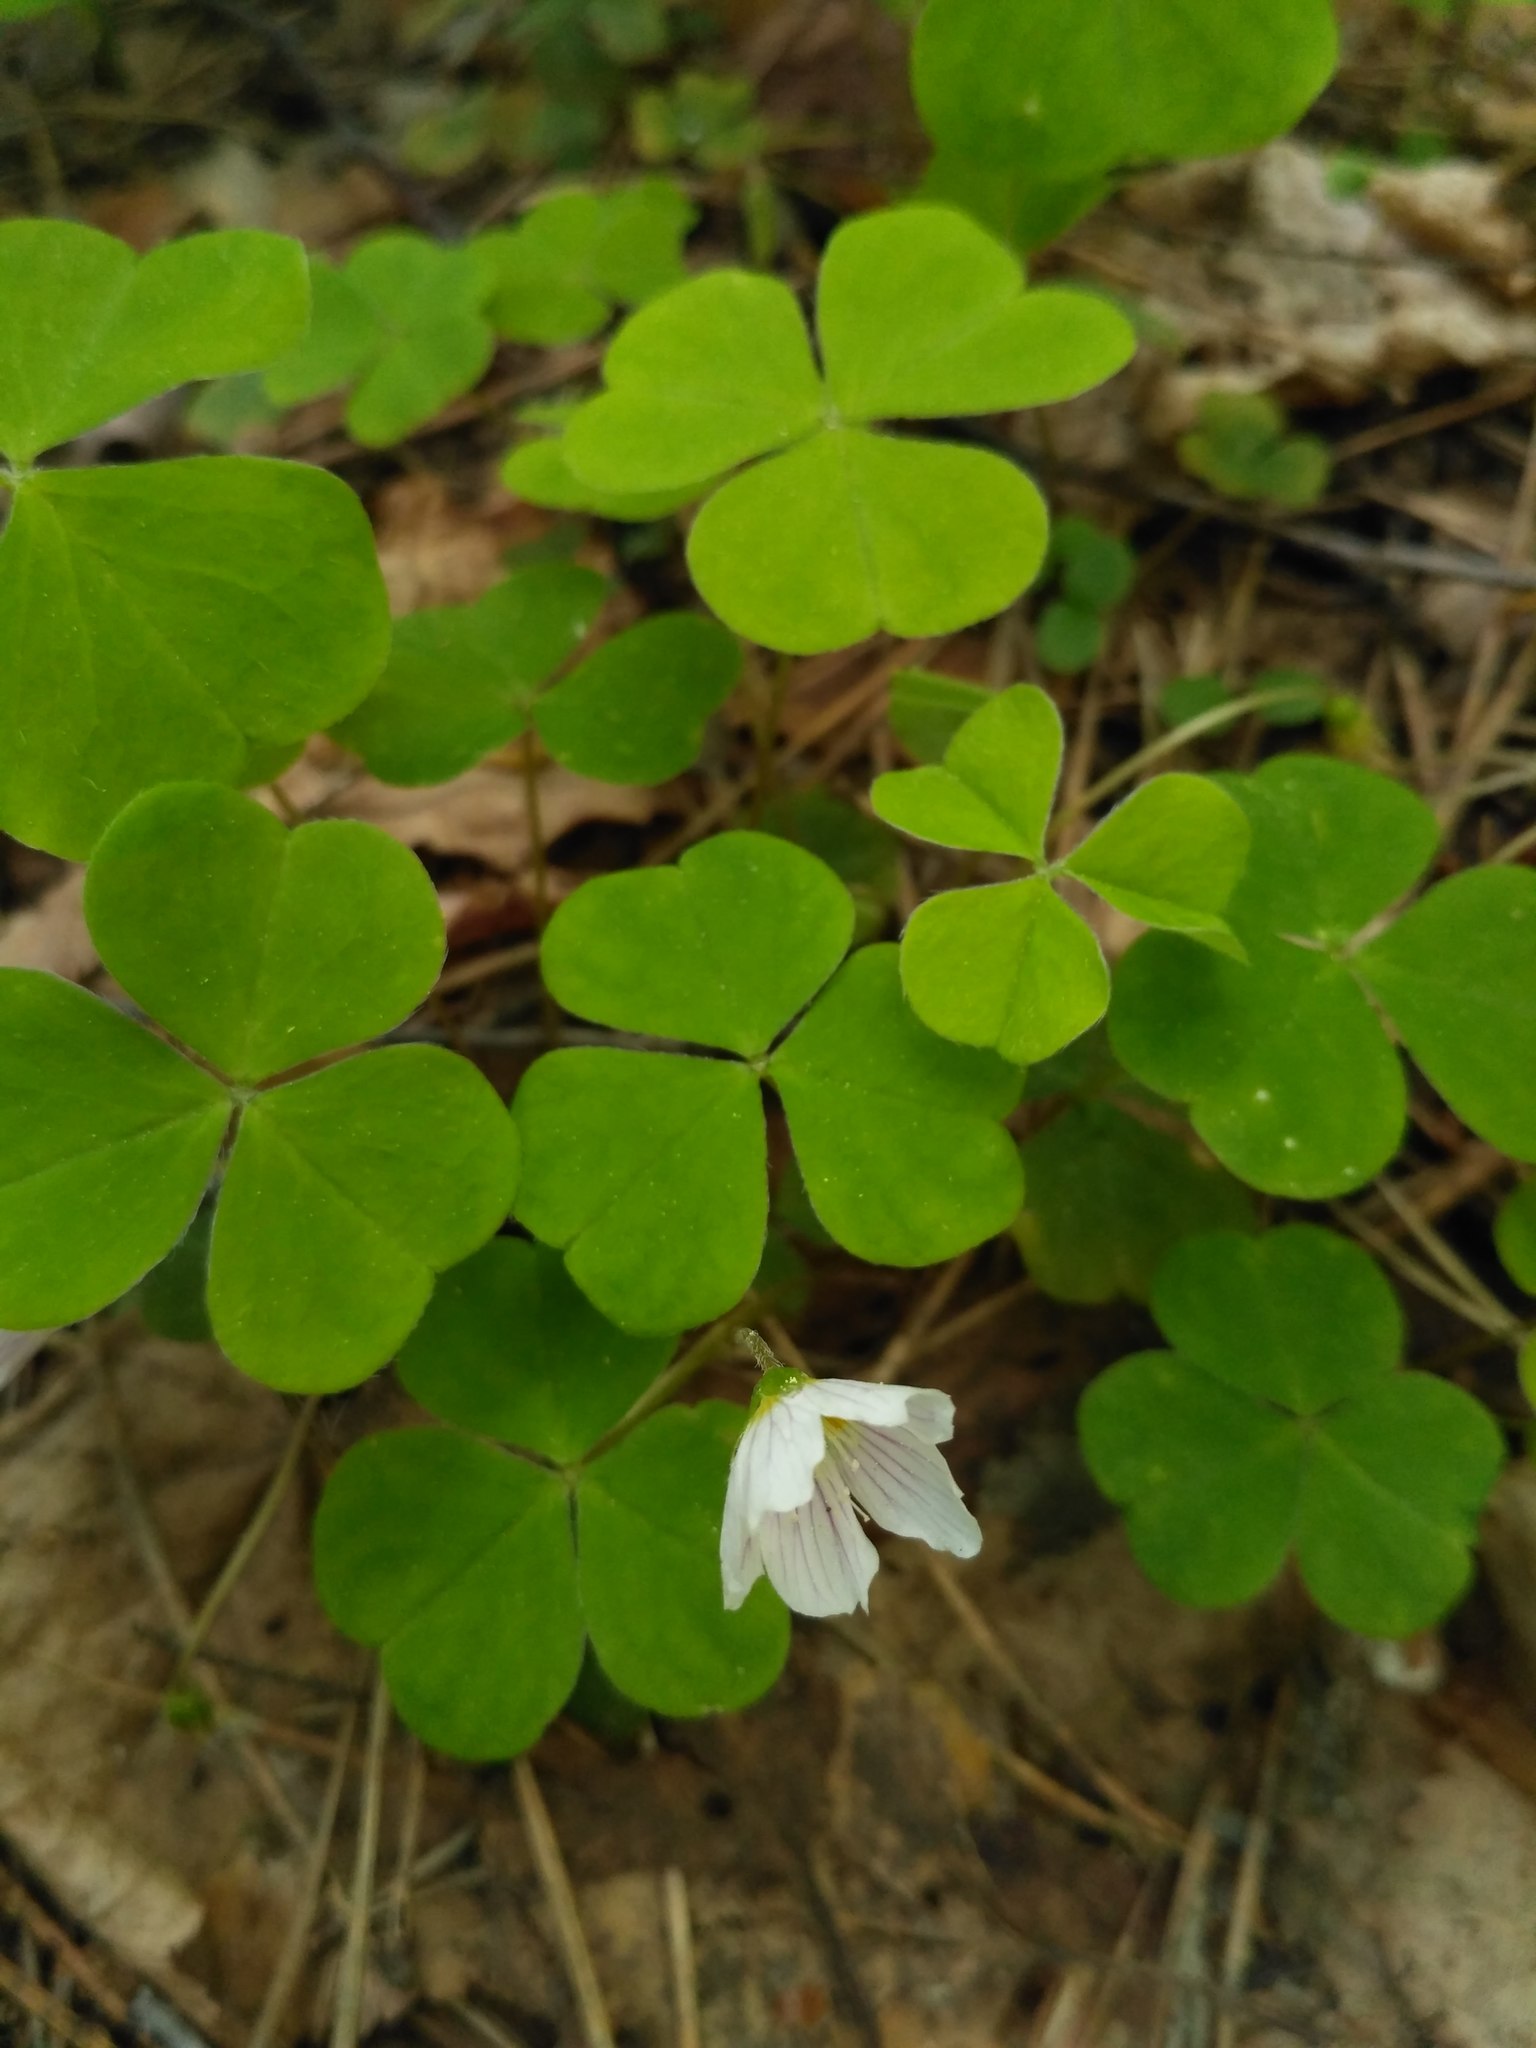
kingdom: Plantae
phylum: Tracheophyta
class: Magnoliopsida
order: Oxalidales
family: Oxalidaceae
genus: Oxalis
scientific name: Oxalis acetosella
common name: Wood-sorrel
